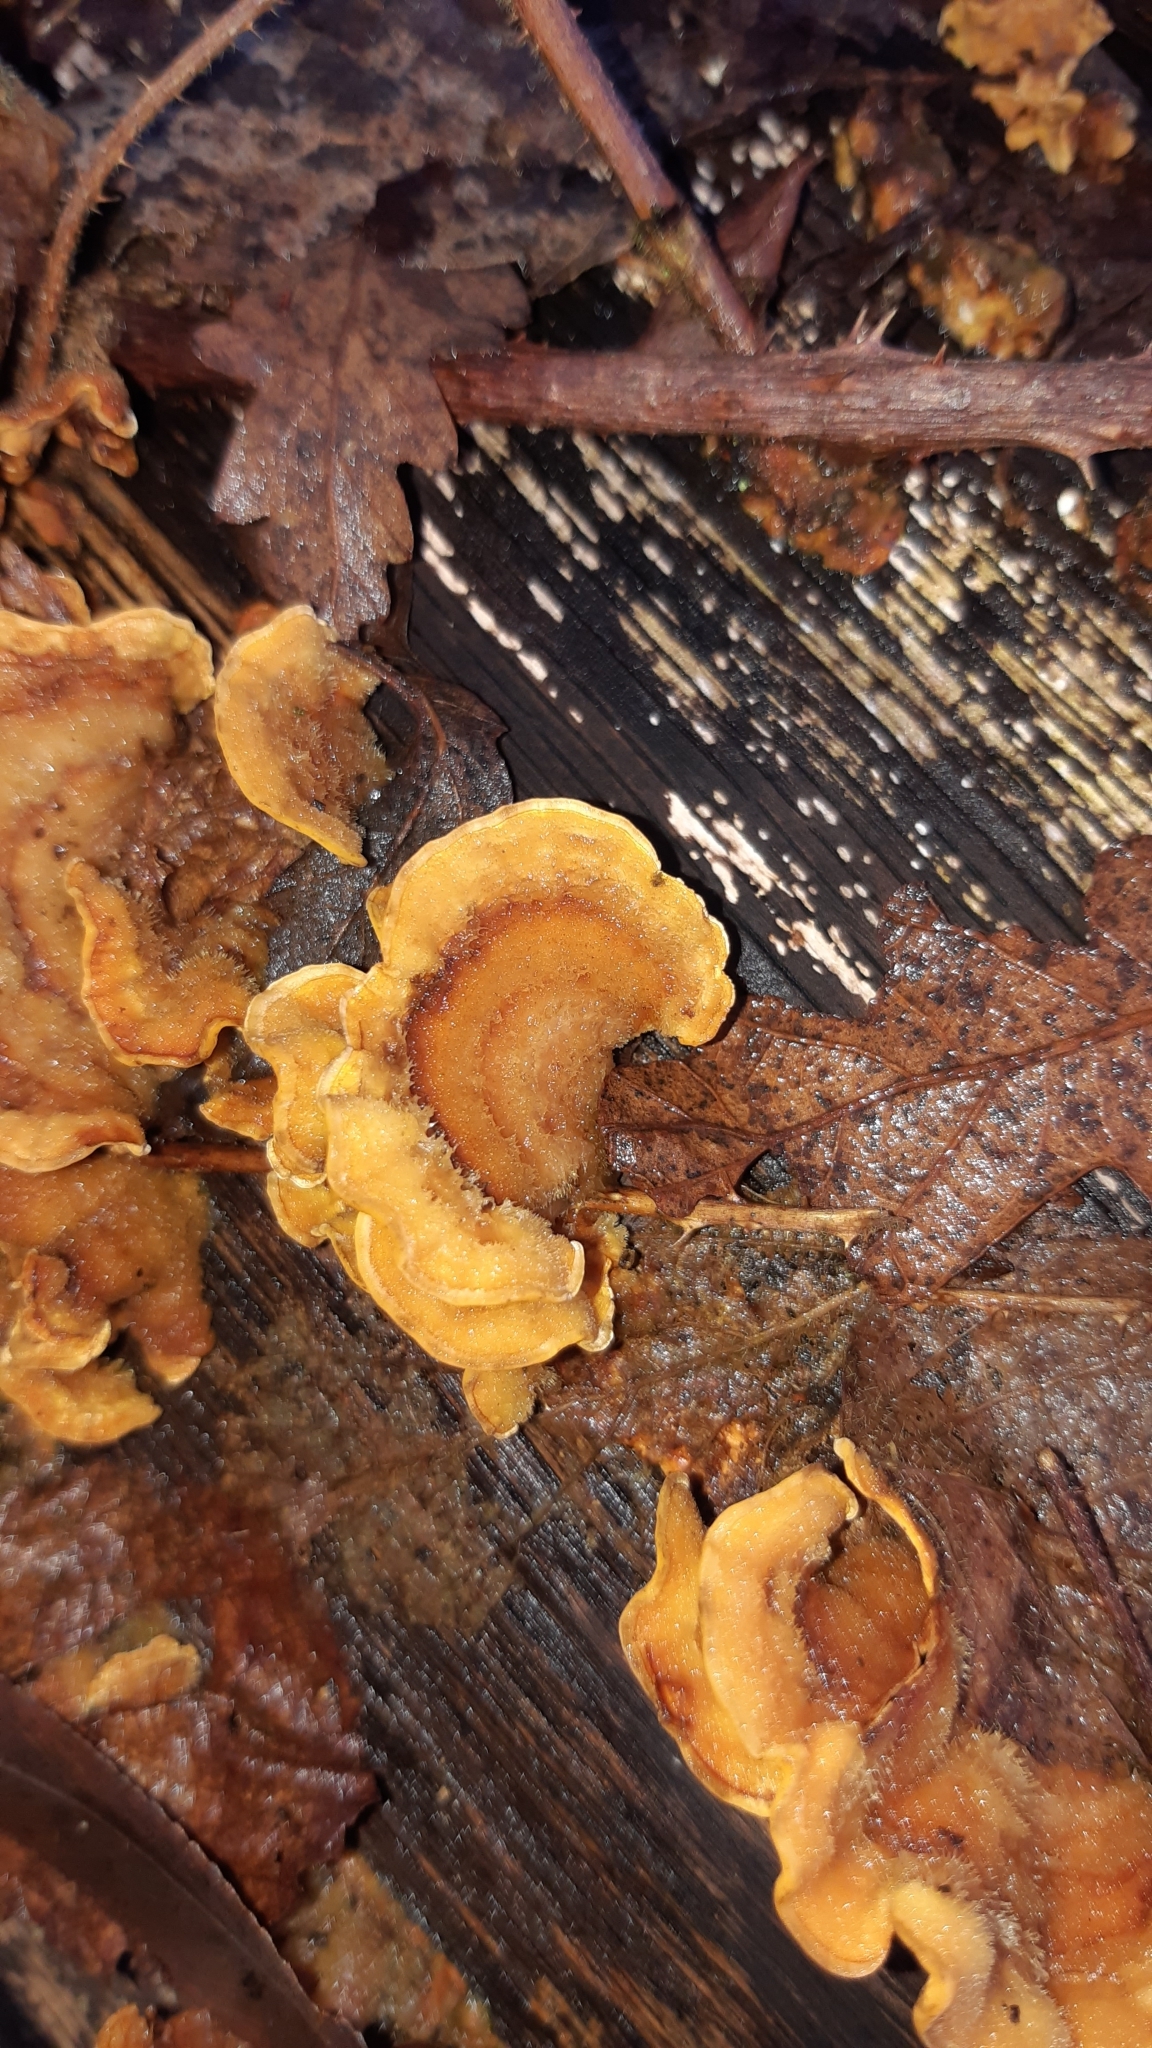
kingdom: Fungi
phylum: Basidiomycota
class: Agaricomycetes
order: Russulales
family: Stereaceae
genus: Stereum
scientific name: Stereum hirsutum
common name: Hairy curtain crust
